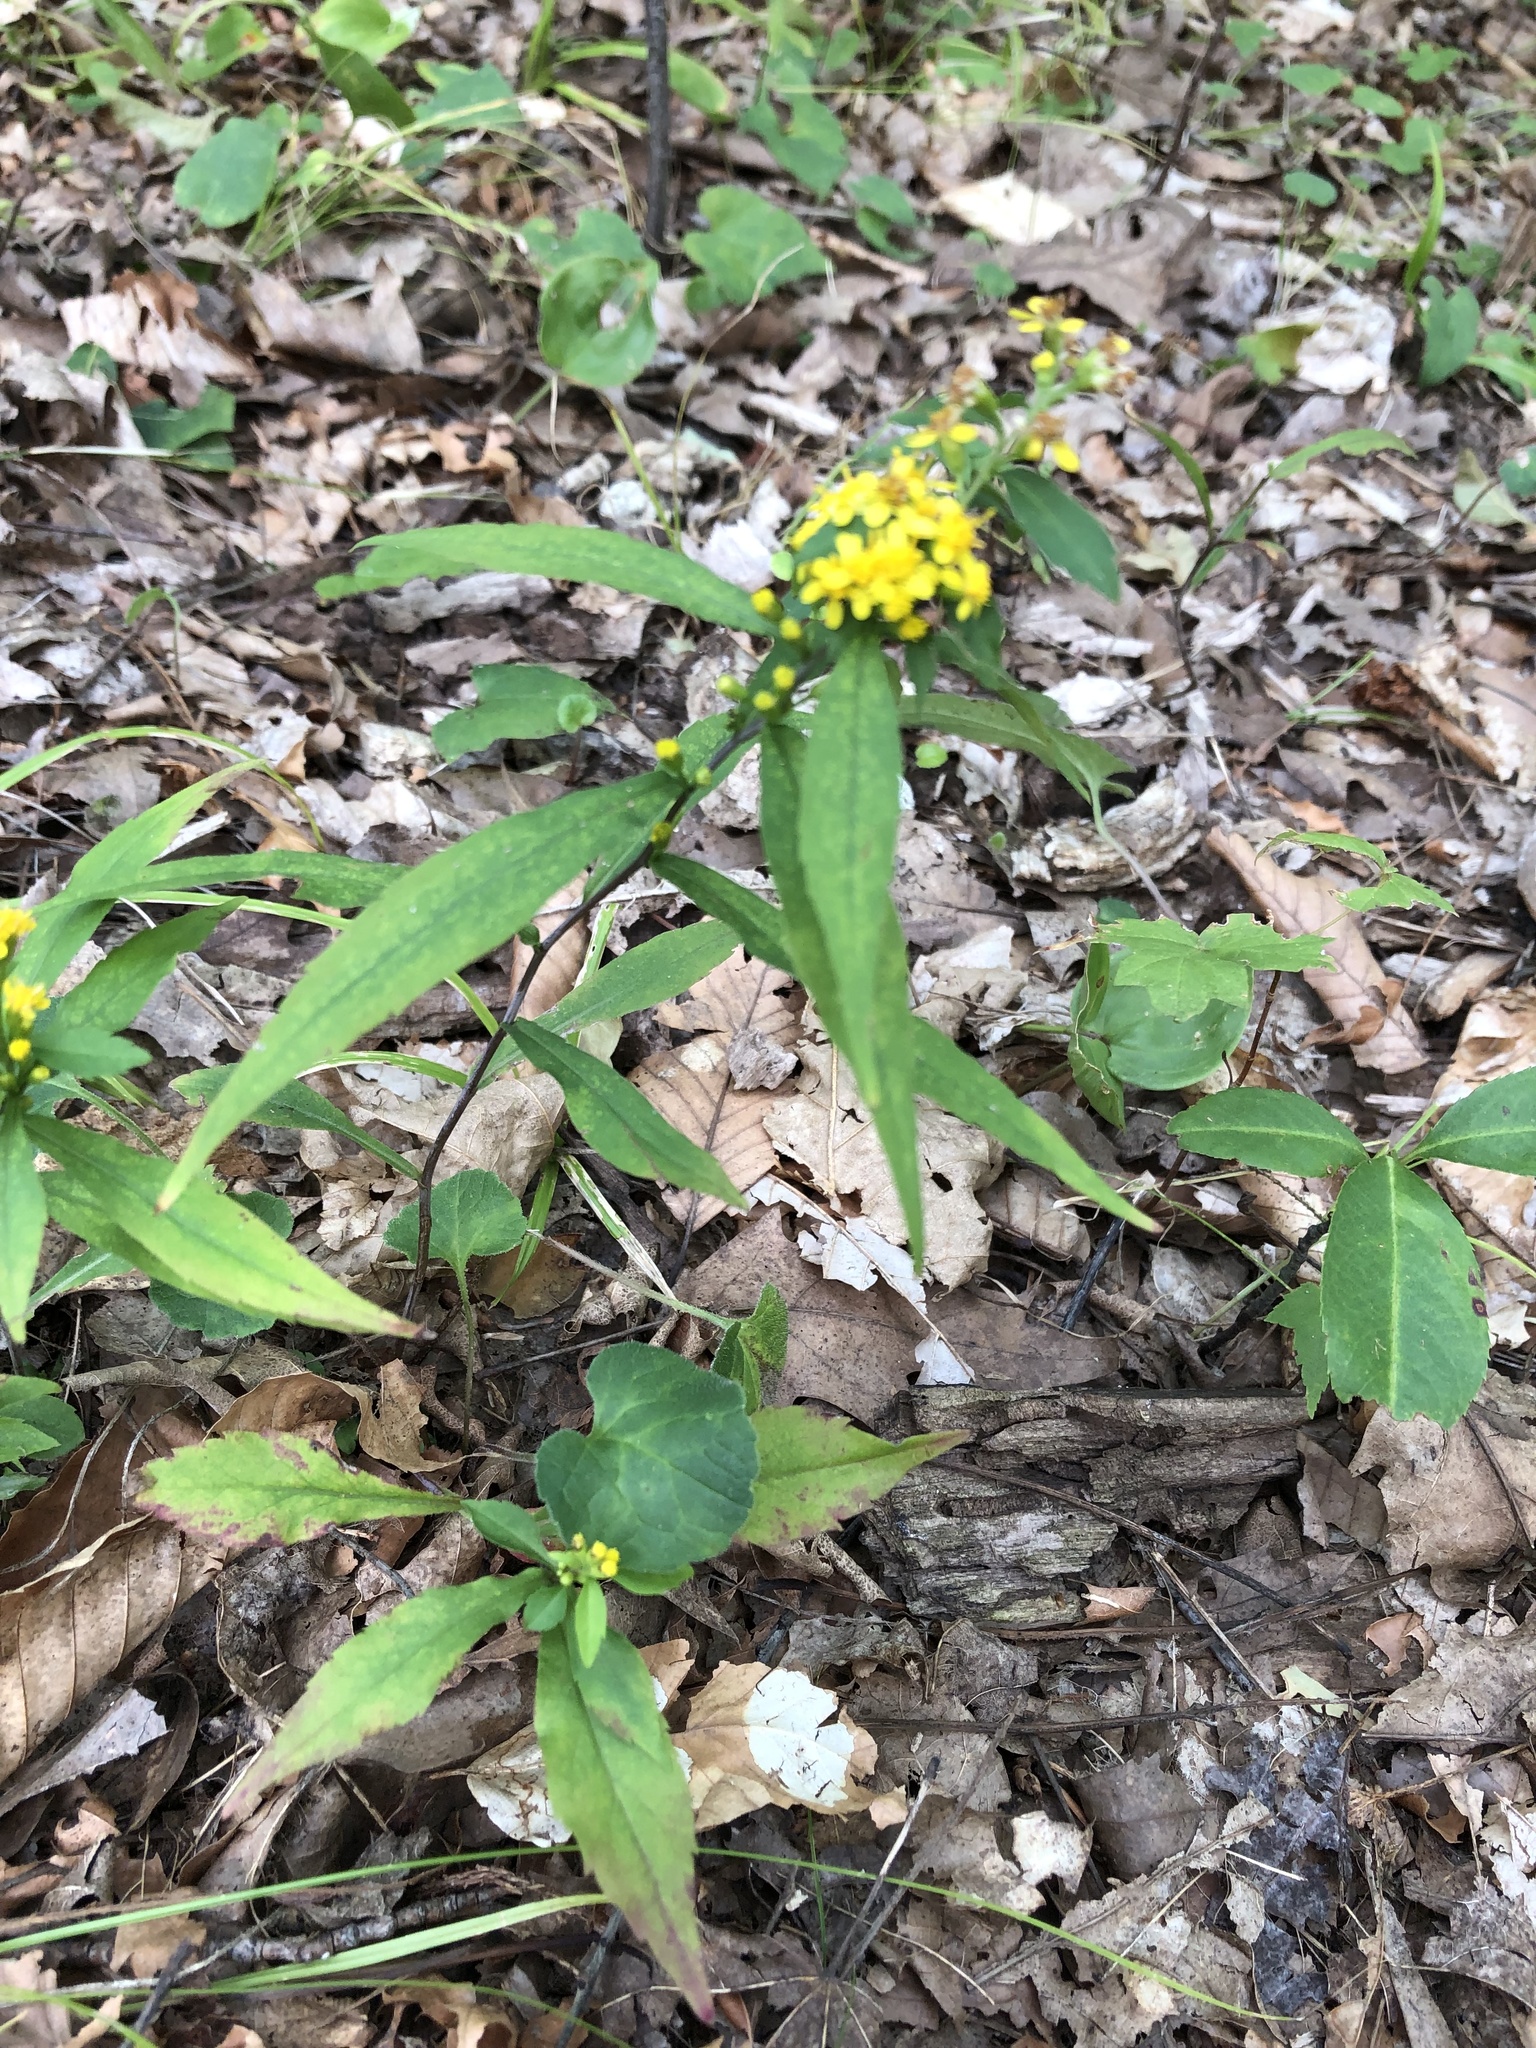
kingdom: Plantae
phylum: Tracheophyta
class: Magnoliopsida
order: Asterales
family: Asteraceae
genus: Solidago
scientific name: Solidago caesia
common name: Woodland goldenrod
